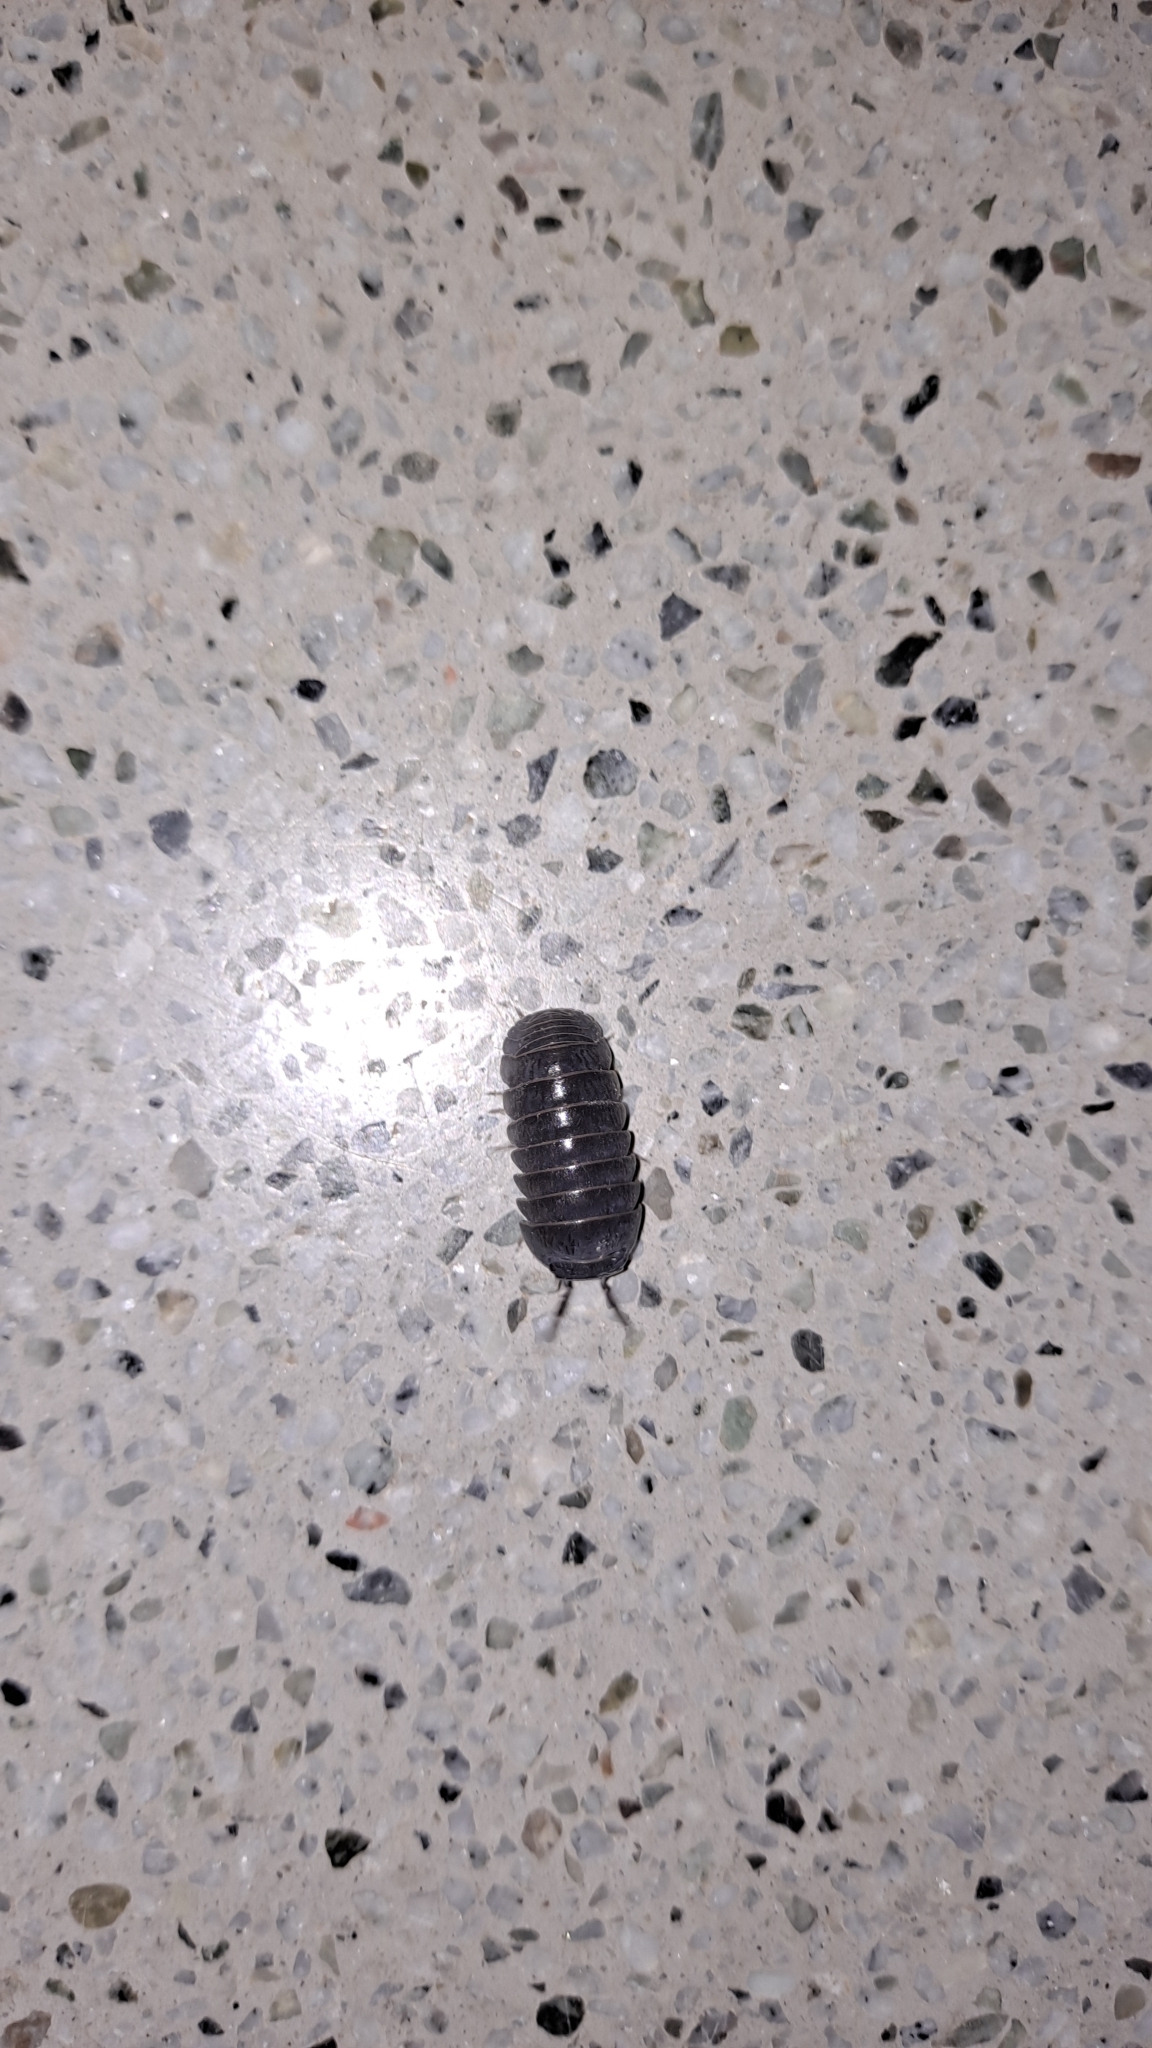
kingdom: Animalia
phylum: Arthropoda
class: Malacostraca
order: Isopoda
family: Armadillidae
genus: Armadillo
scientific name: Armadillo officinalis
